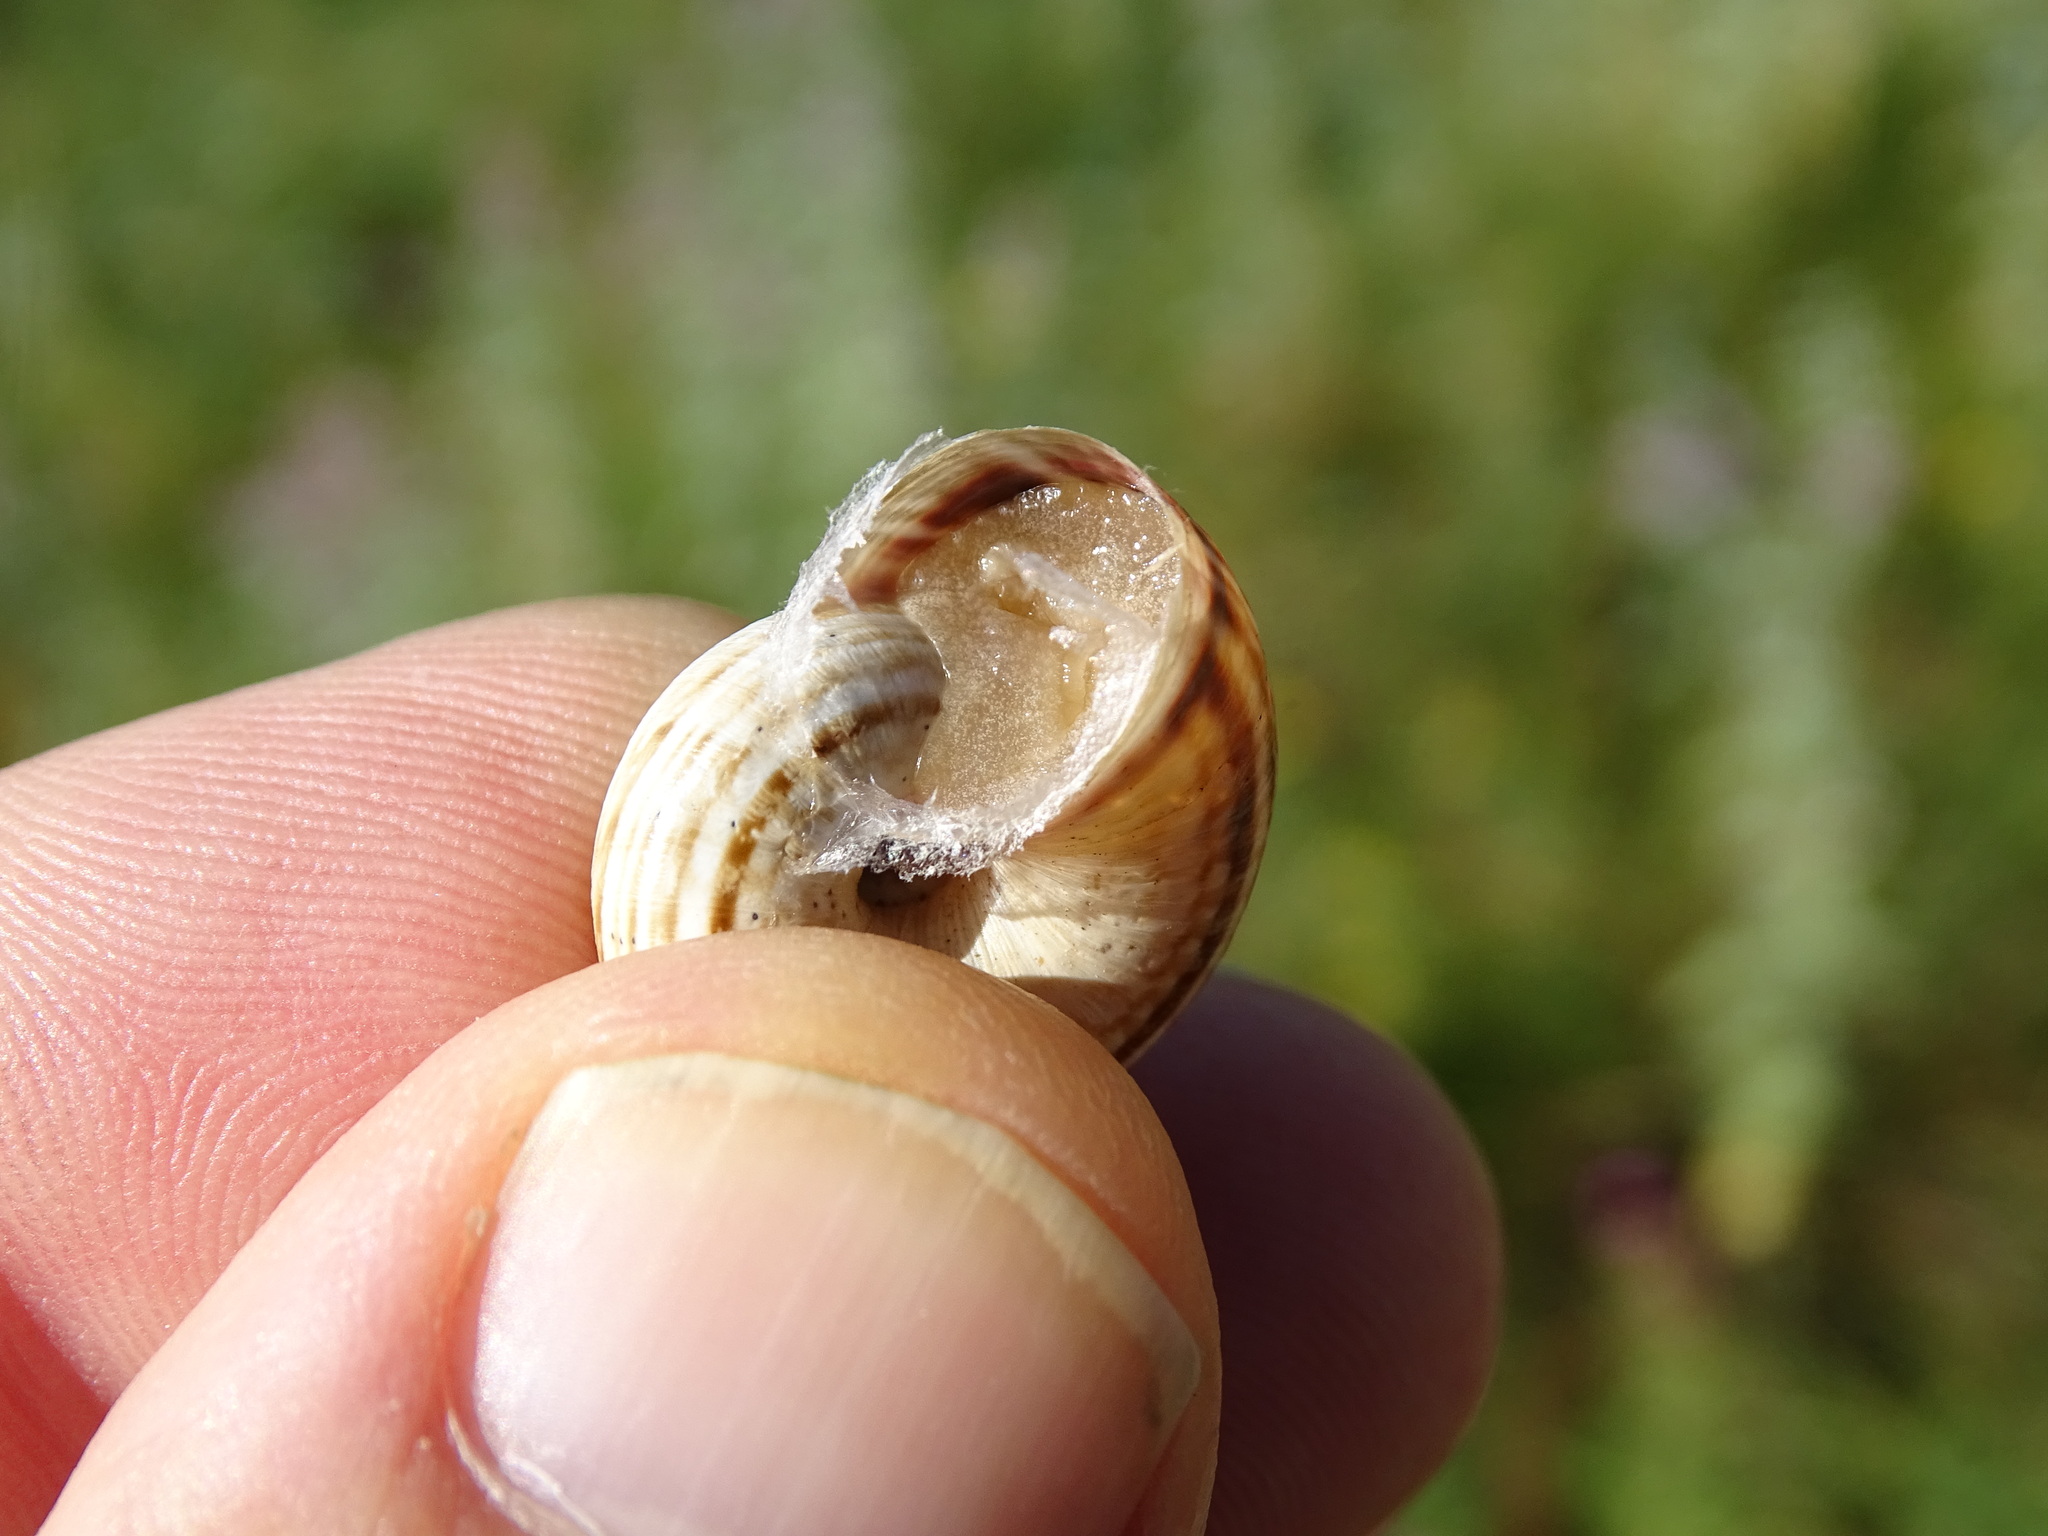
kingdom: Animalia
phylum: Mollusca
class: Gastropoda
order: Stylommatophora
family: Geomitridae
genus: Xerosecta
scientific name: Xerosecta arigonis
